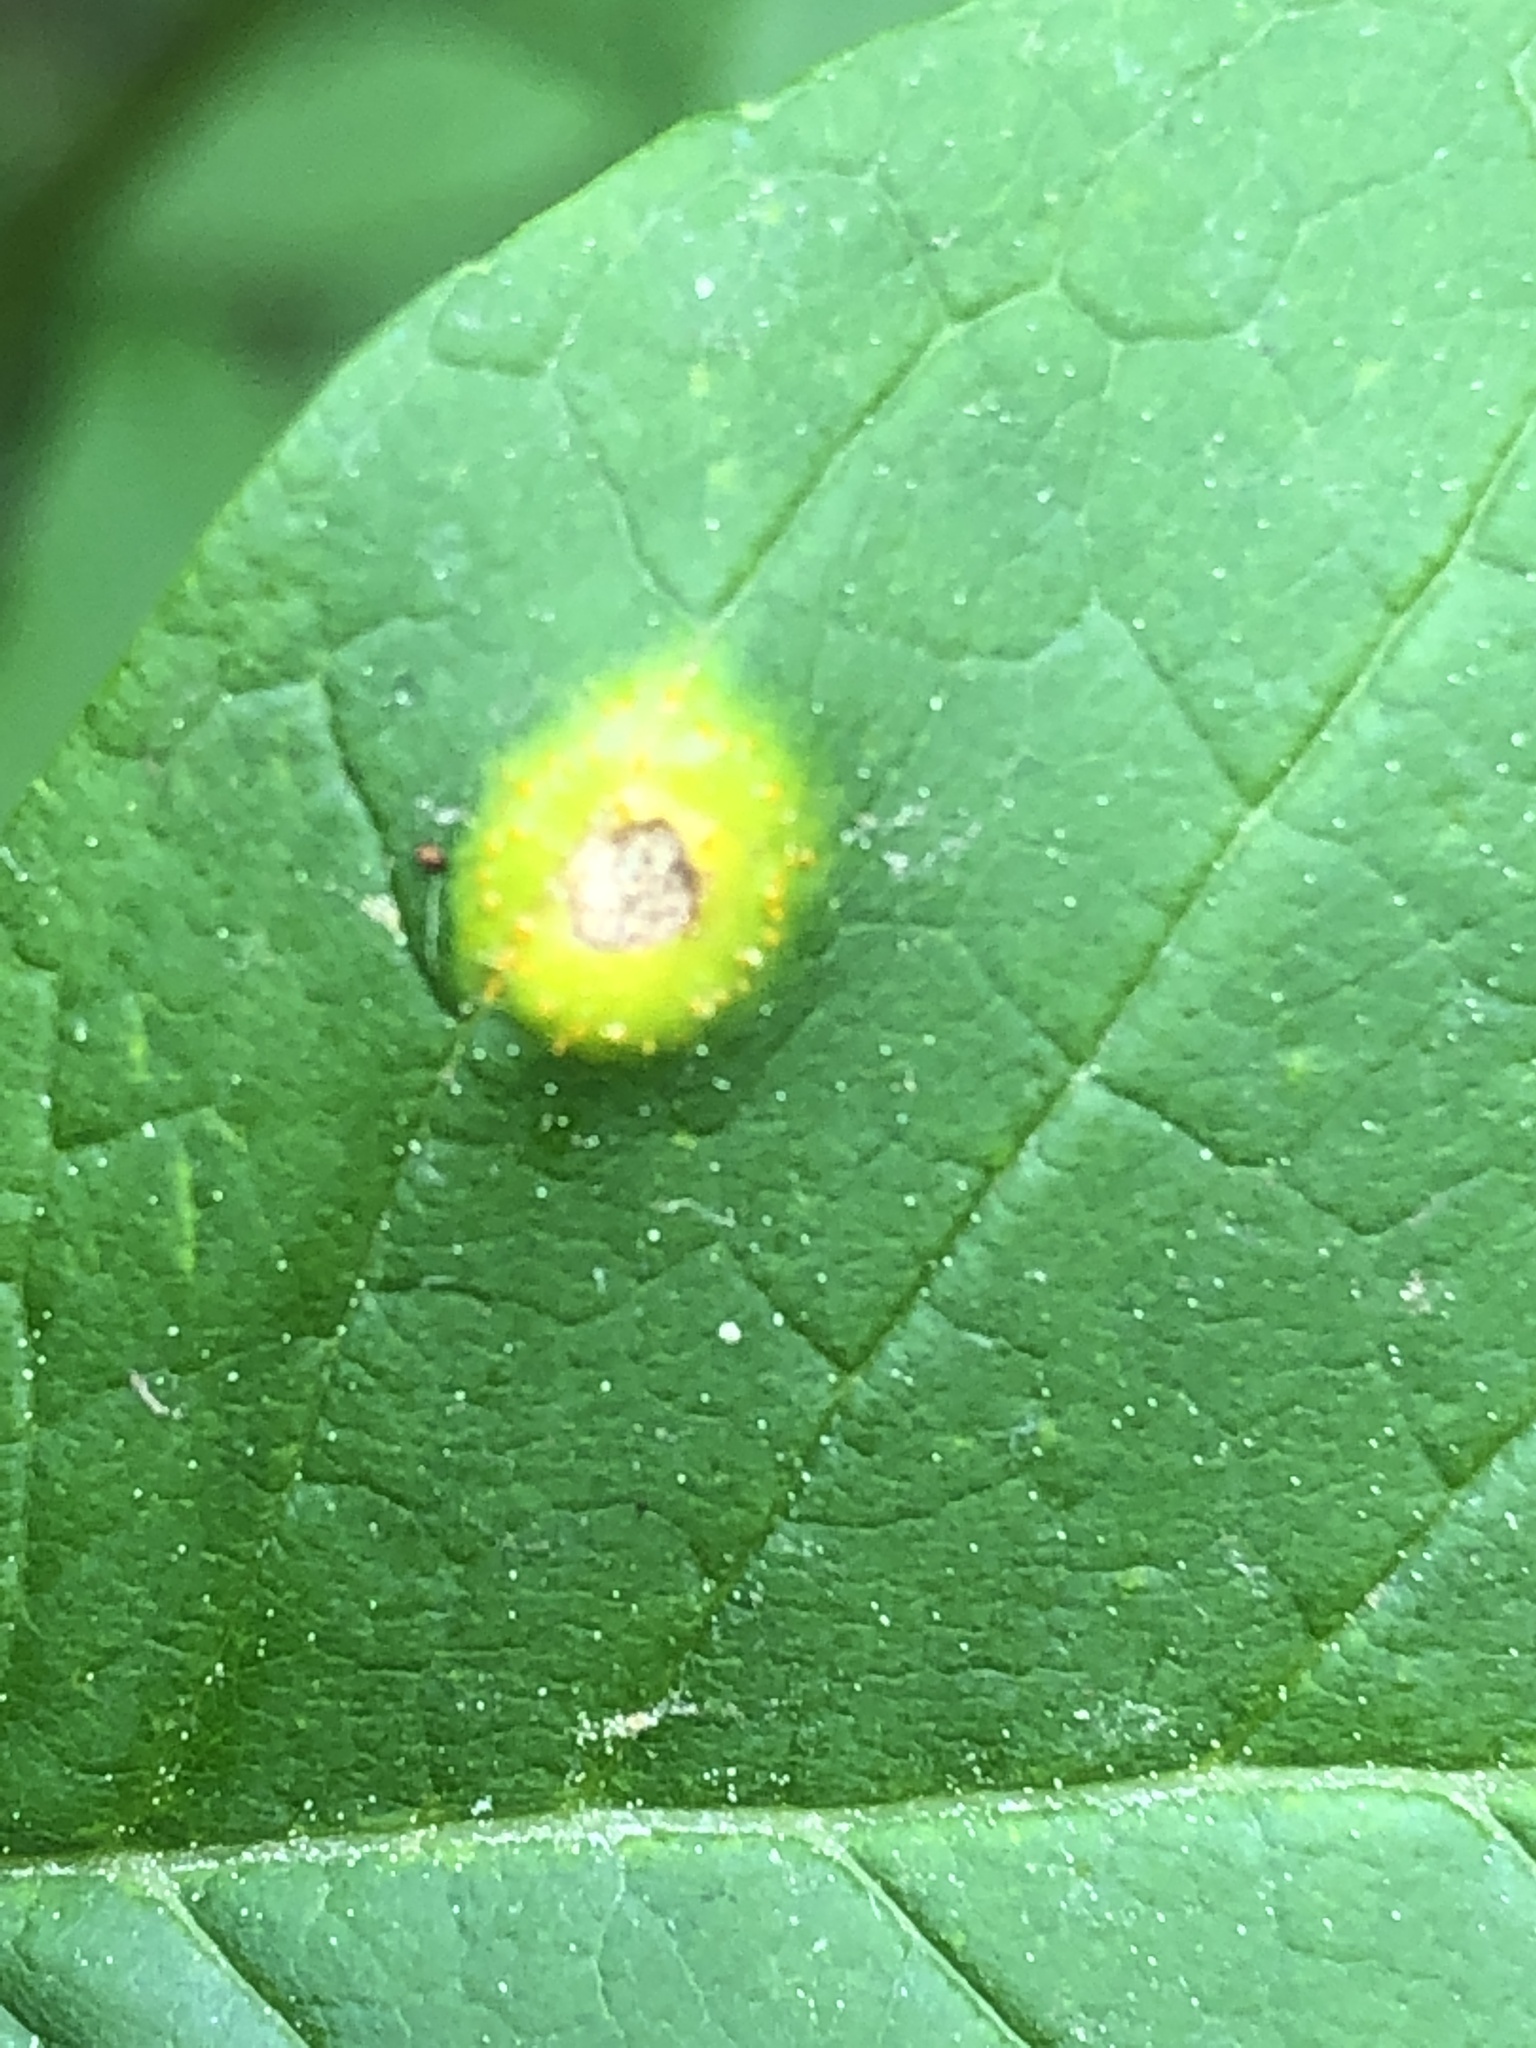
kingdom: Fungi
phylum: Basidiomycota
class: Pucciniomycetes
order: Pucciniales
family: Pucciniaceae
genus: Puccinia
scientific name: Puccinia sparganioidis
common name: Ash rust
